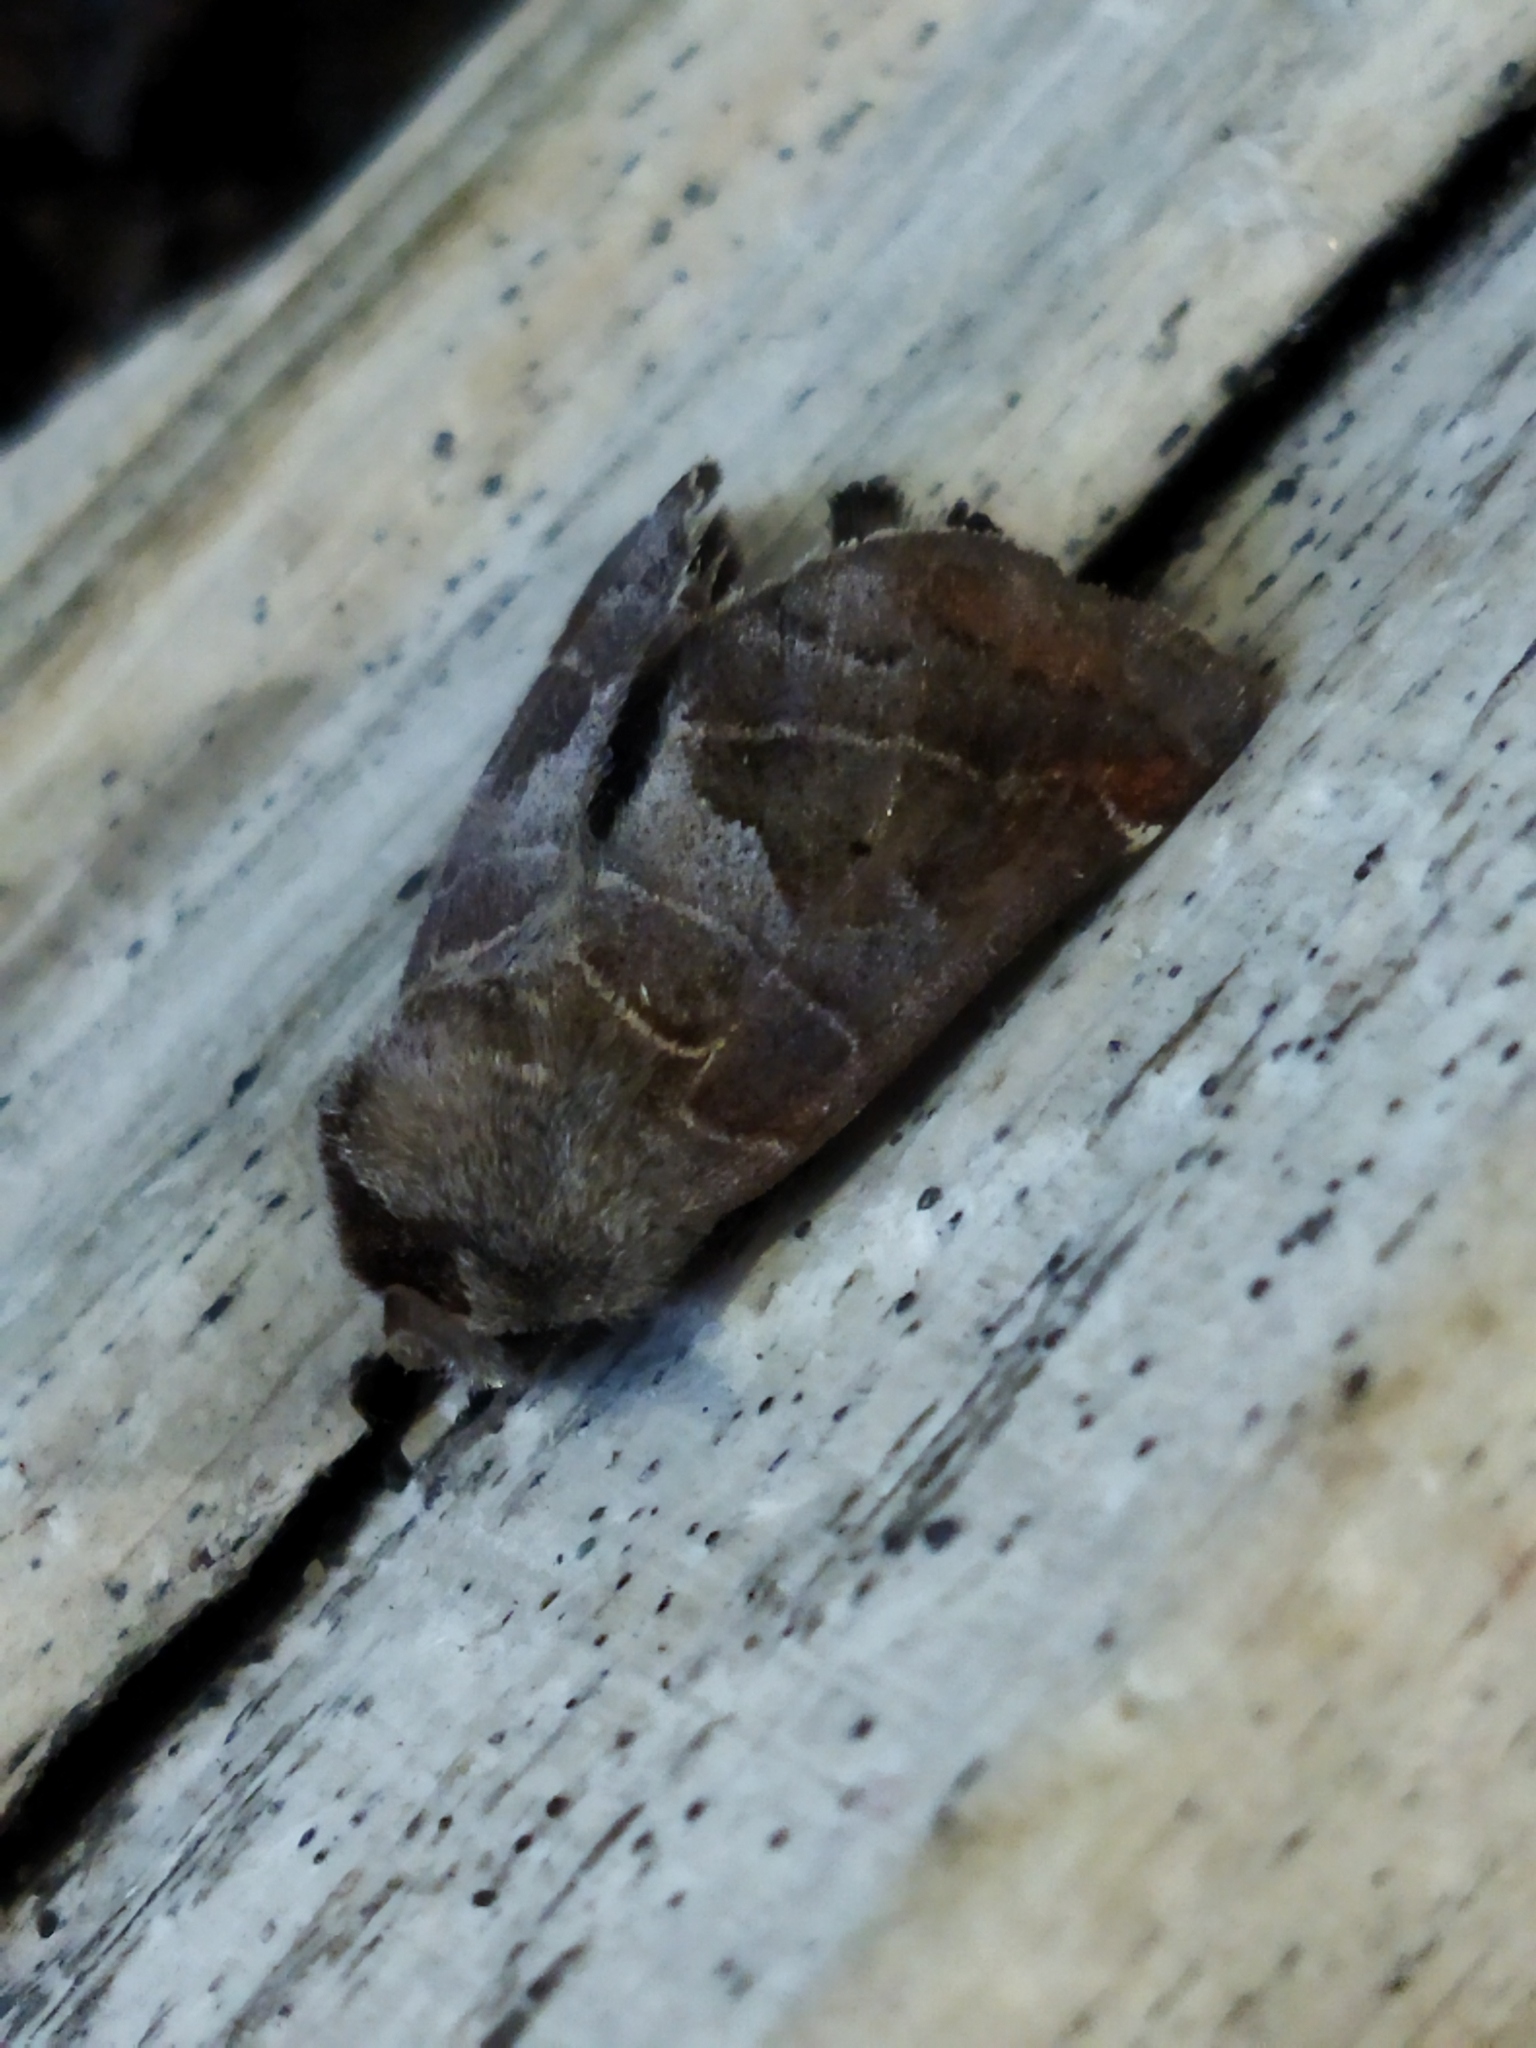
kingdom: Animalia
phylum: Arthropoda
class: Insecta
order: Lepidoptera
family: Notodontidae
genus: Clostera
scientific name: Clostera pigra
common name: Small chocolate-tip
